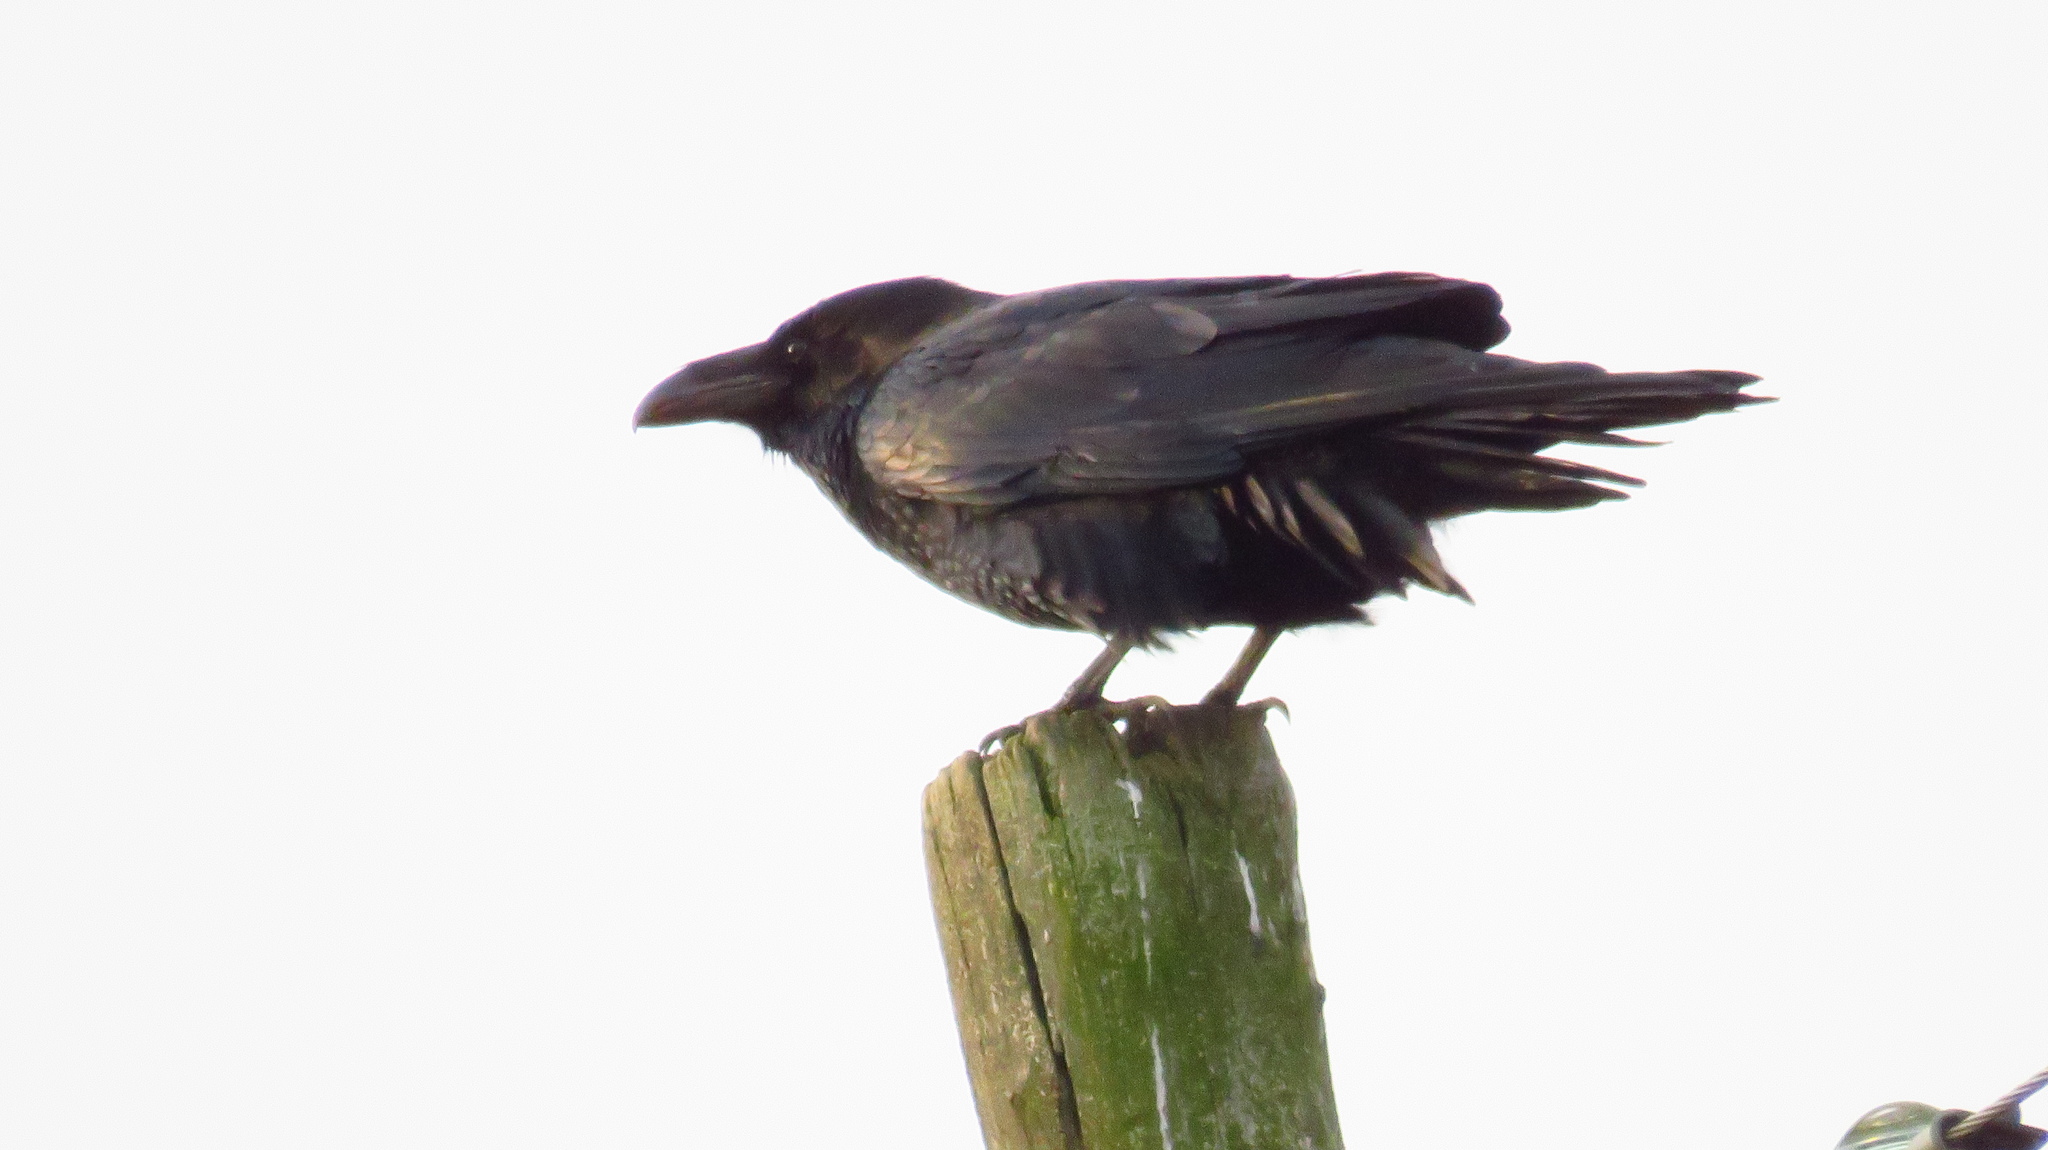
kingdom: Animalia
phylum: Chordata
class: Aves
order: Passeriformes
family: Corvidae
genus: Corvus
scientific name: Corvus corax
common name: Common raven
